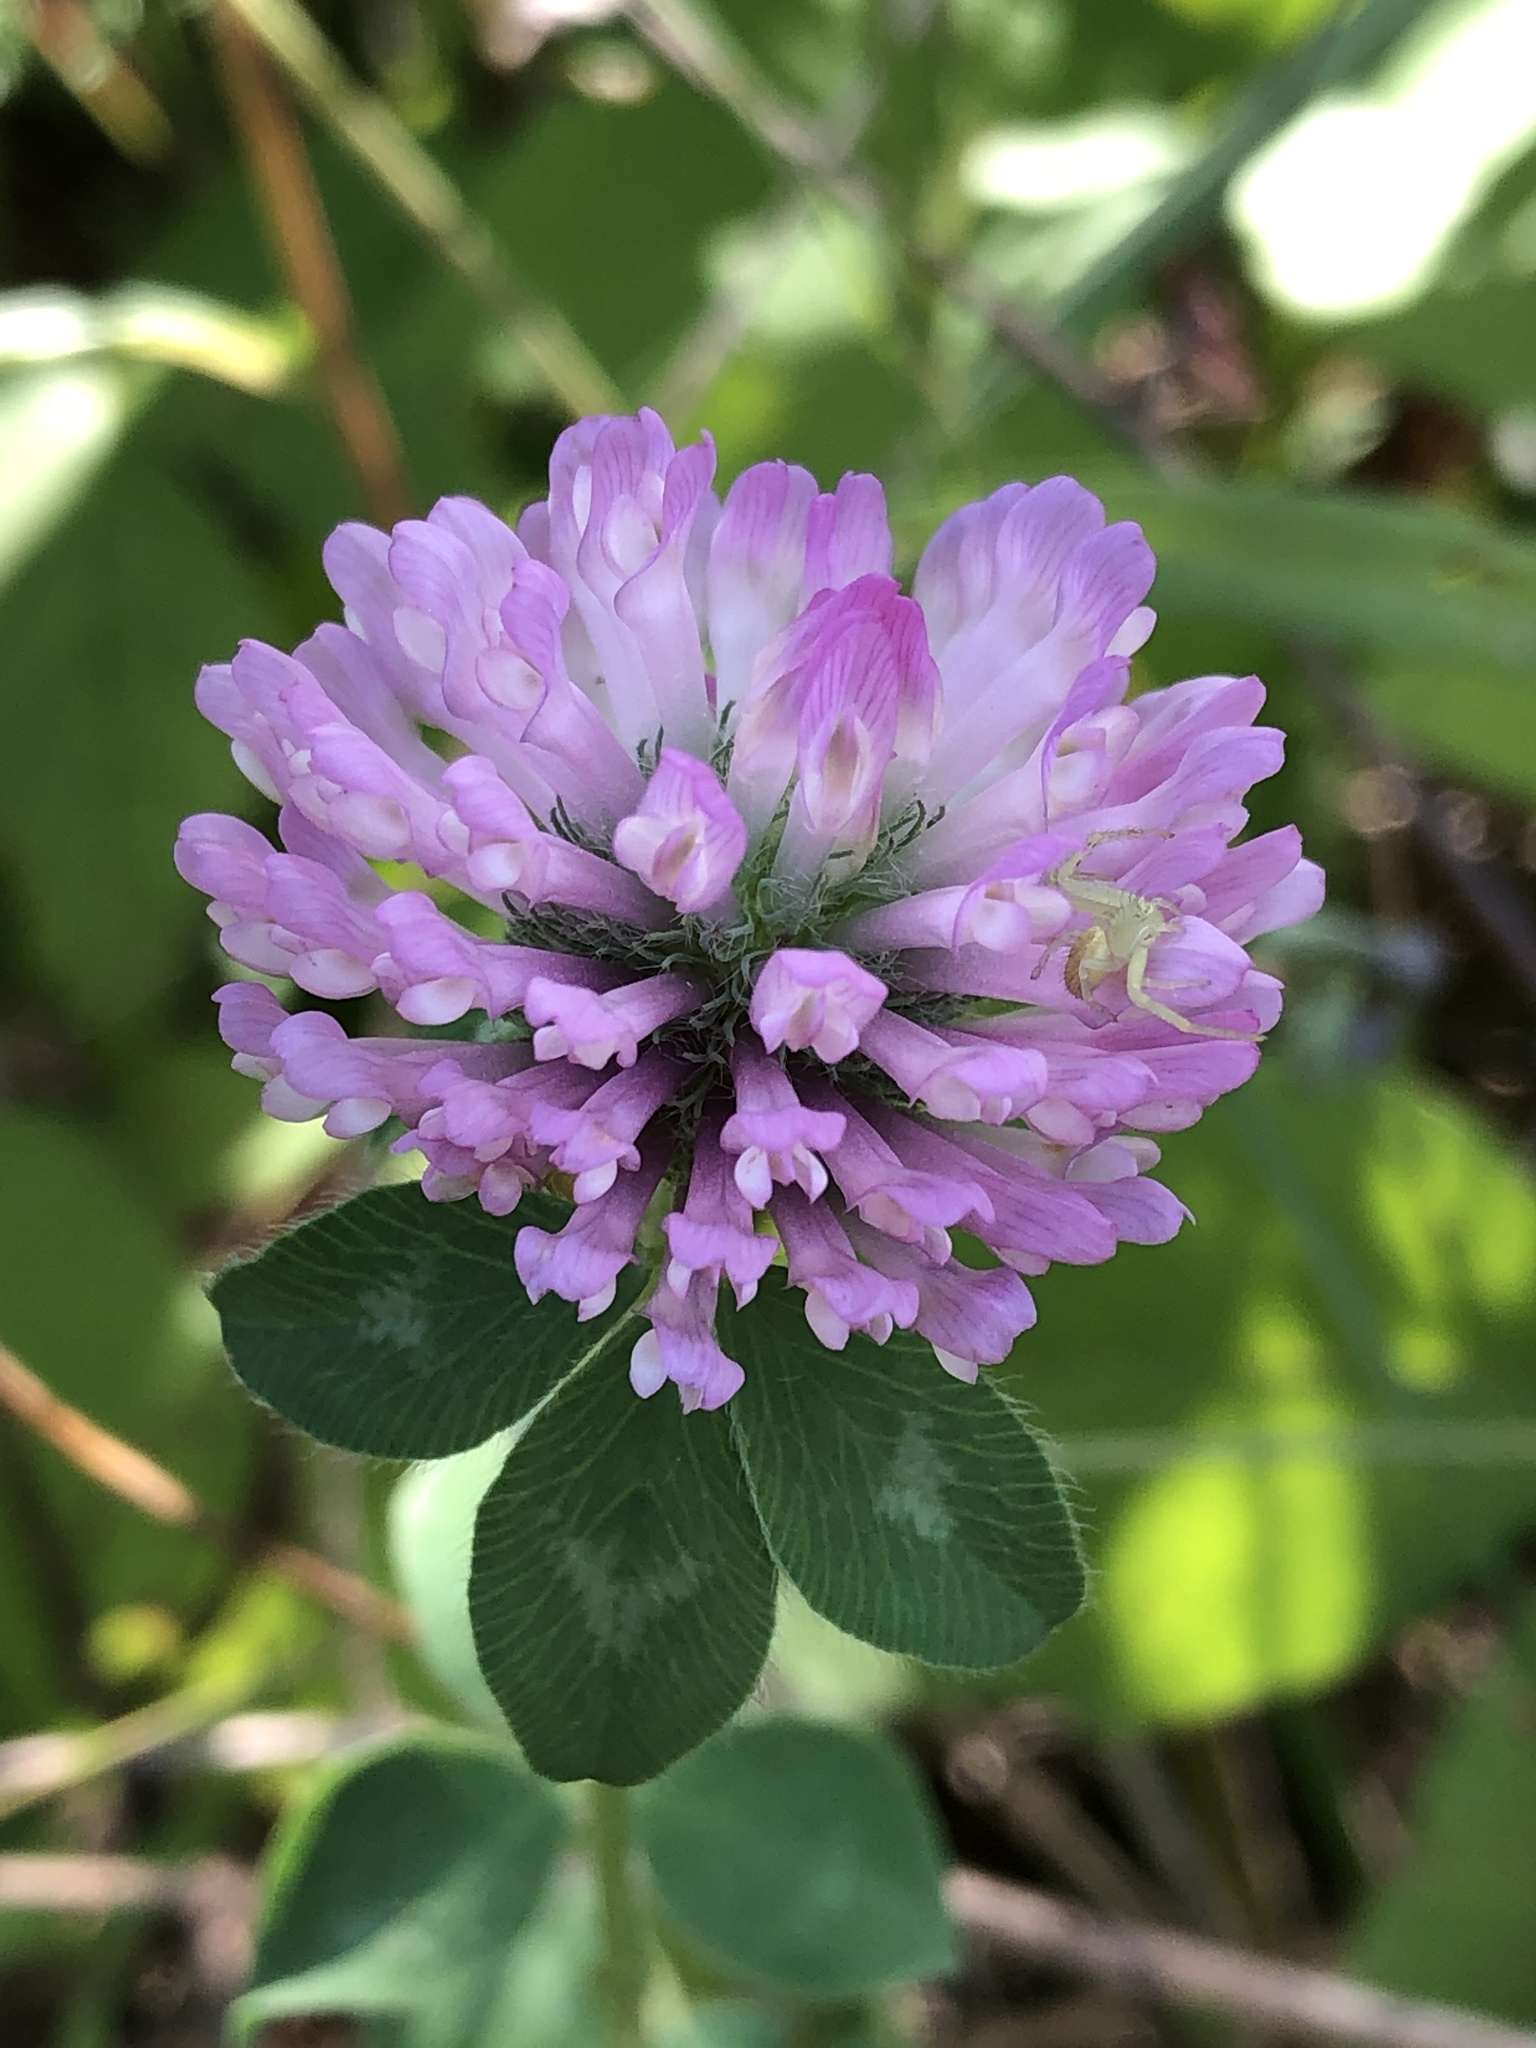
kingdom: Plantae
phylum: Tracheophyta
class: Magnoliopsida
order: Fabales
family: Fabaceae
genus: Trifolium
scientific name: Trifolium pratense
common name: Red clover
